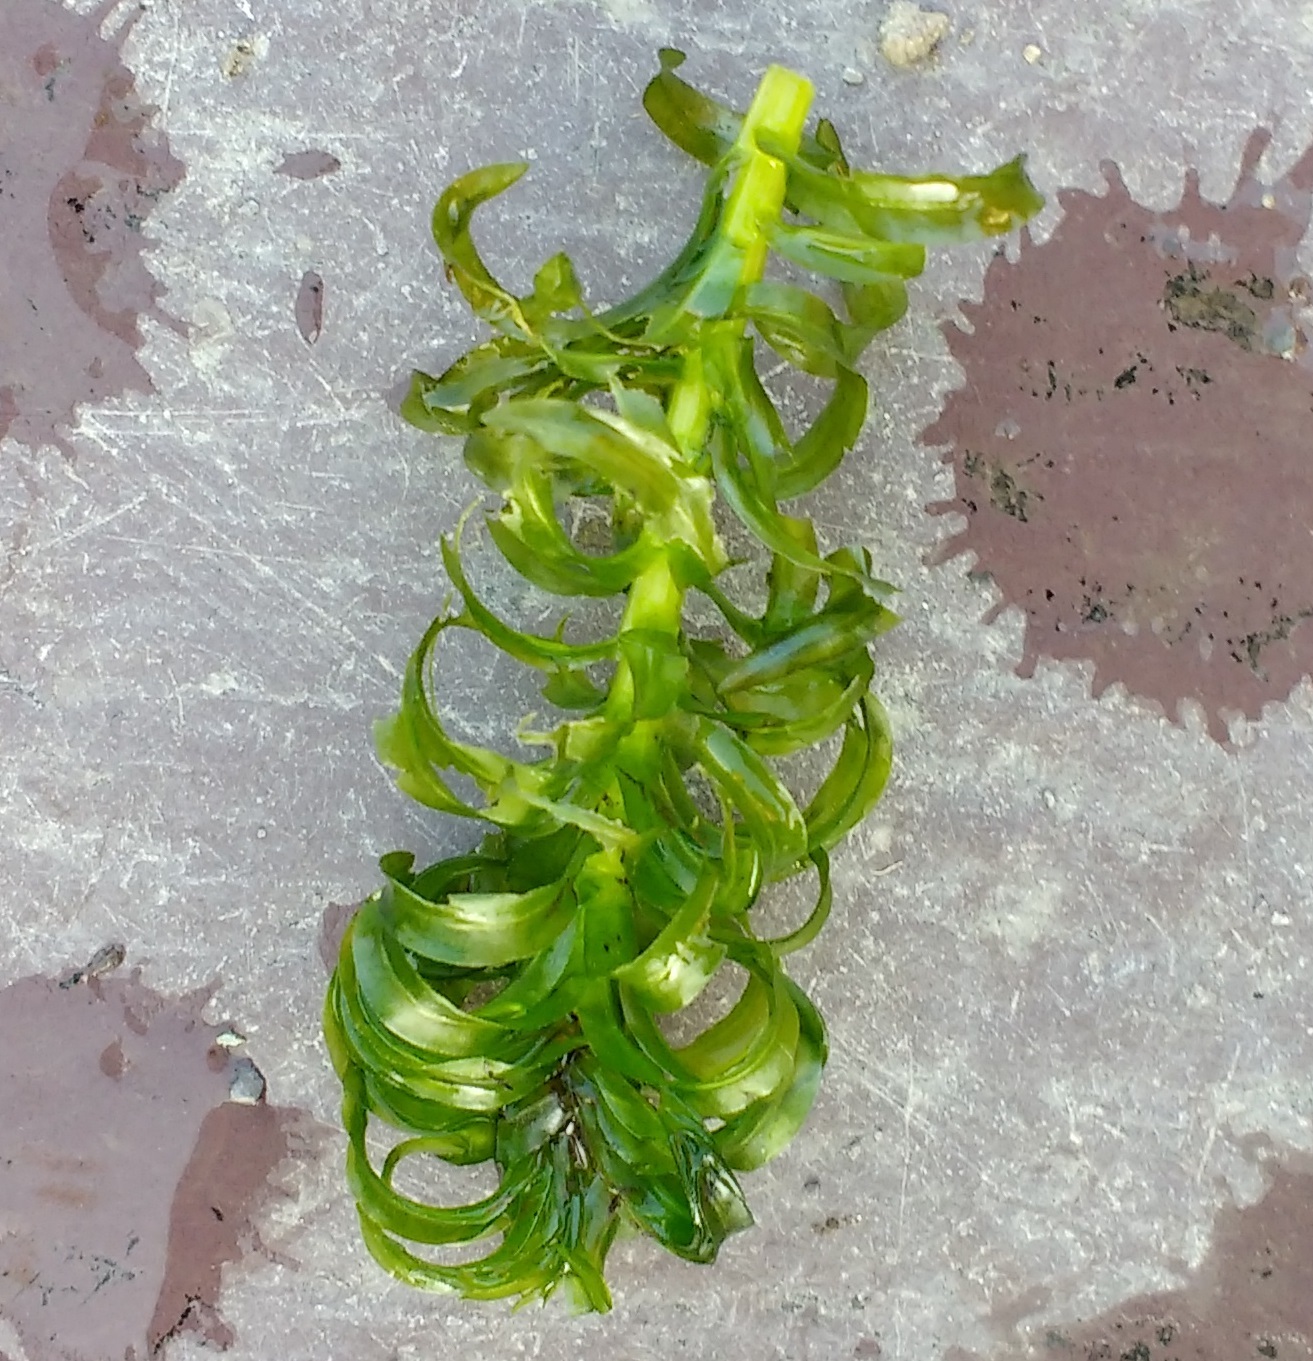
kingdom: Plantae
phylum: Tracheophyta
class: Liliopsida
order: Alismatales
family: Hydrocharitaceae
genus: Lagarosiphon
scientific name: Lagarosiphon major
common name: Curly waterweed
